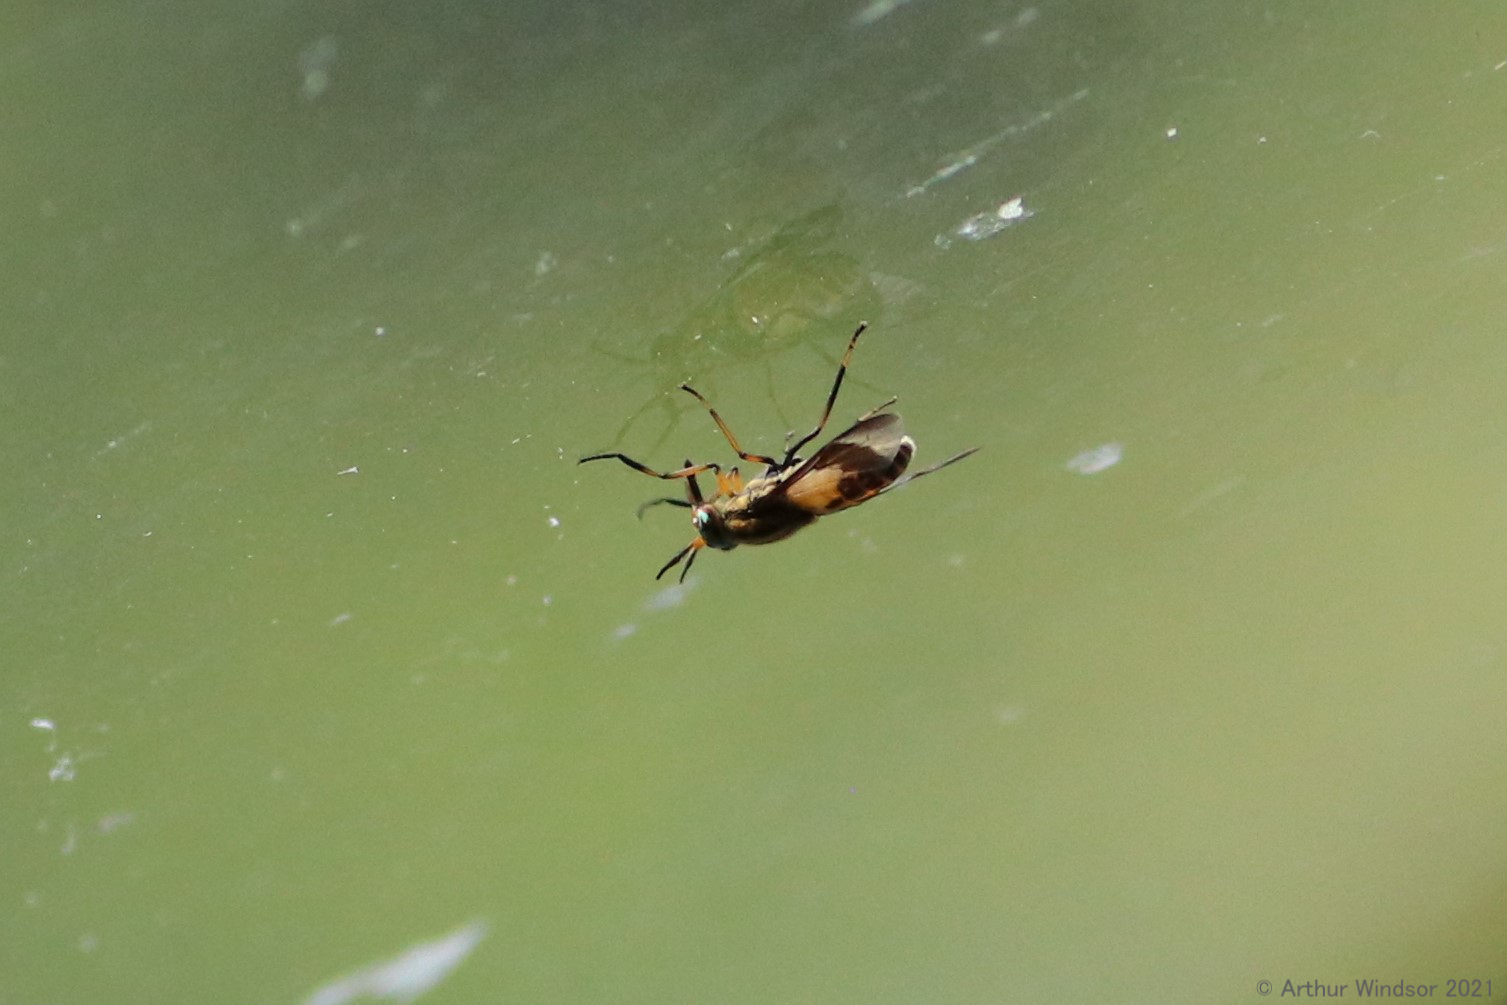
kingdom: Animalia
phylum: Arthropoda
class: Insecta
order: Diptera
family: Tabanidae
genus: Chrysops
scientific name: Chrysops geminatus
